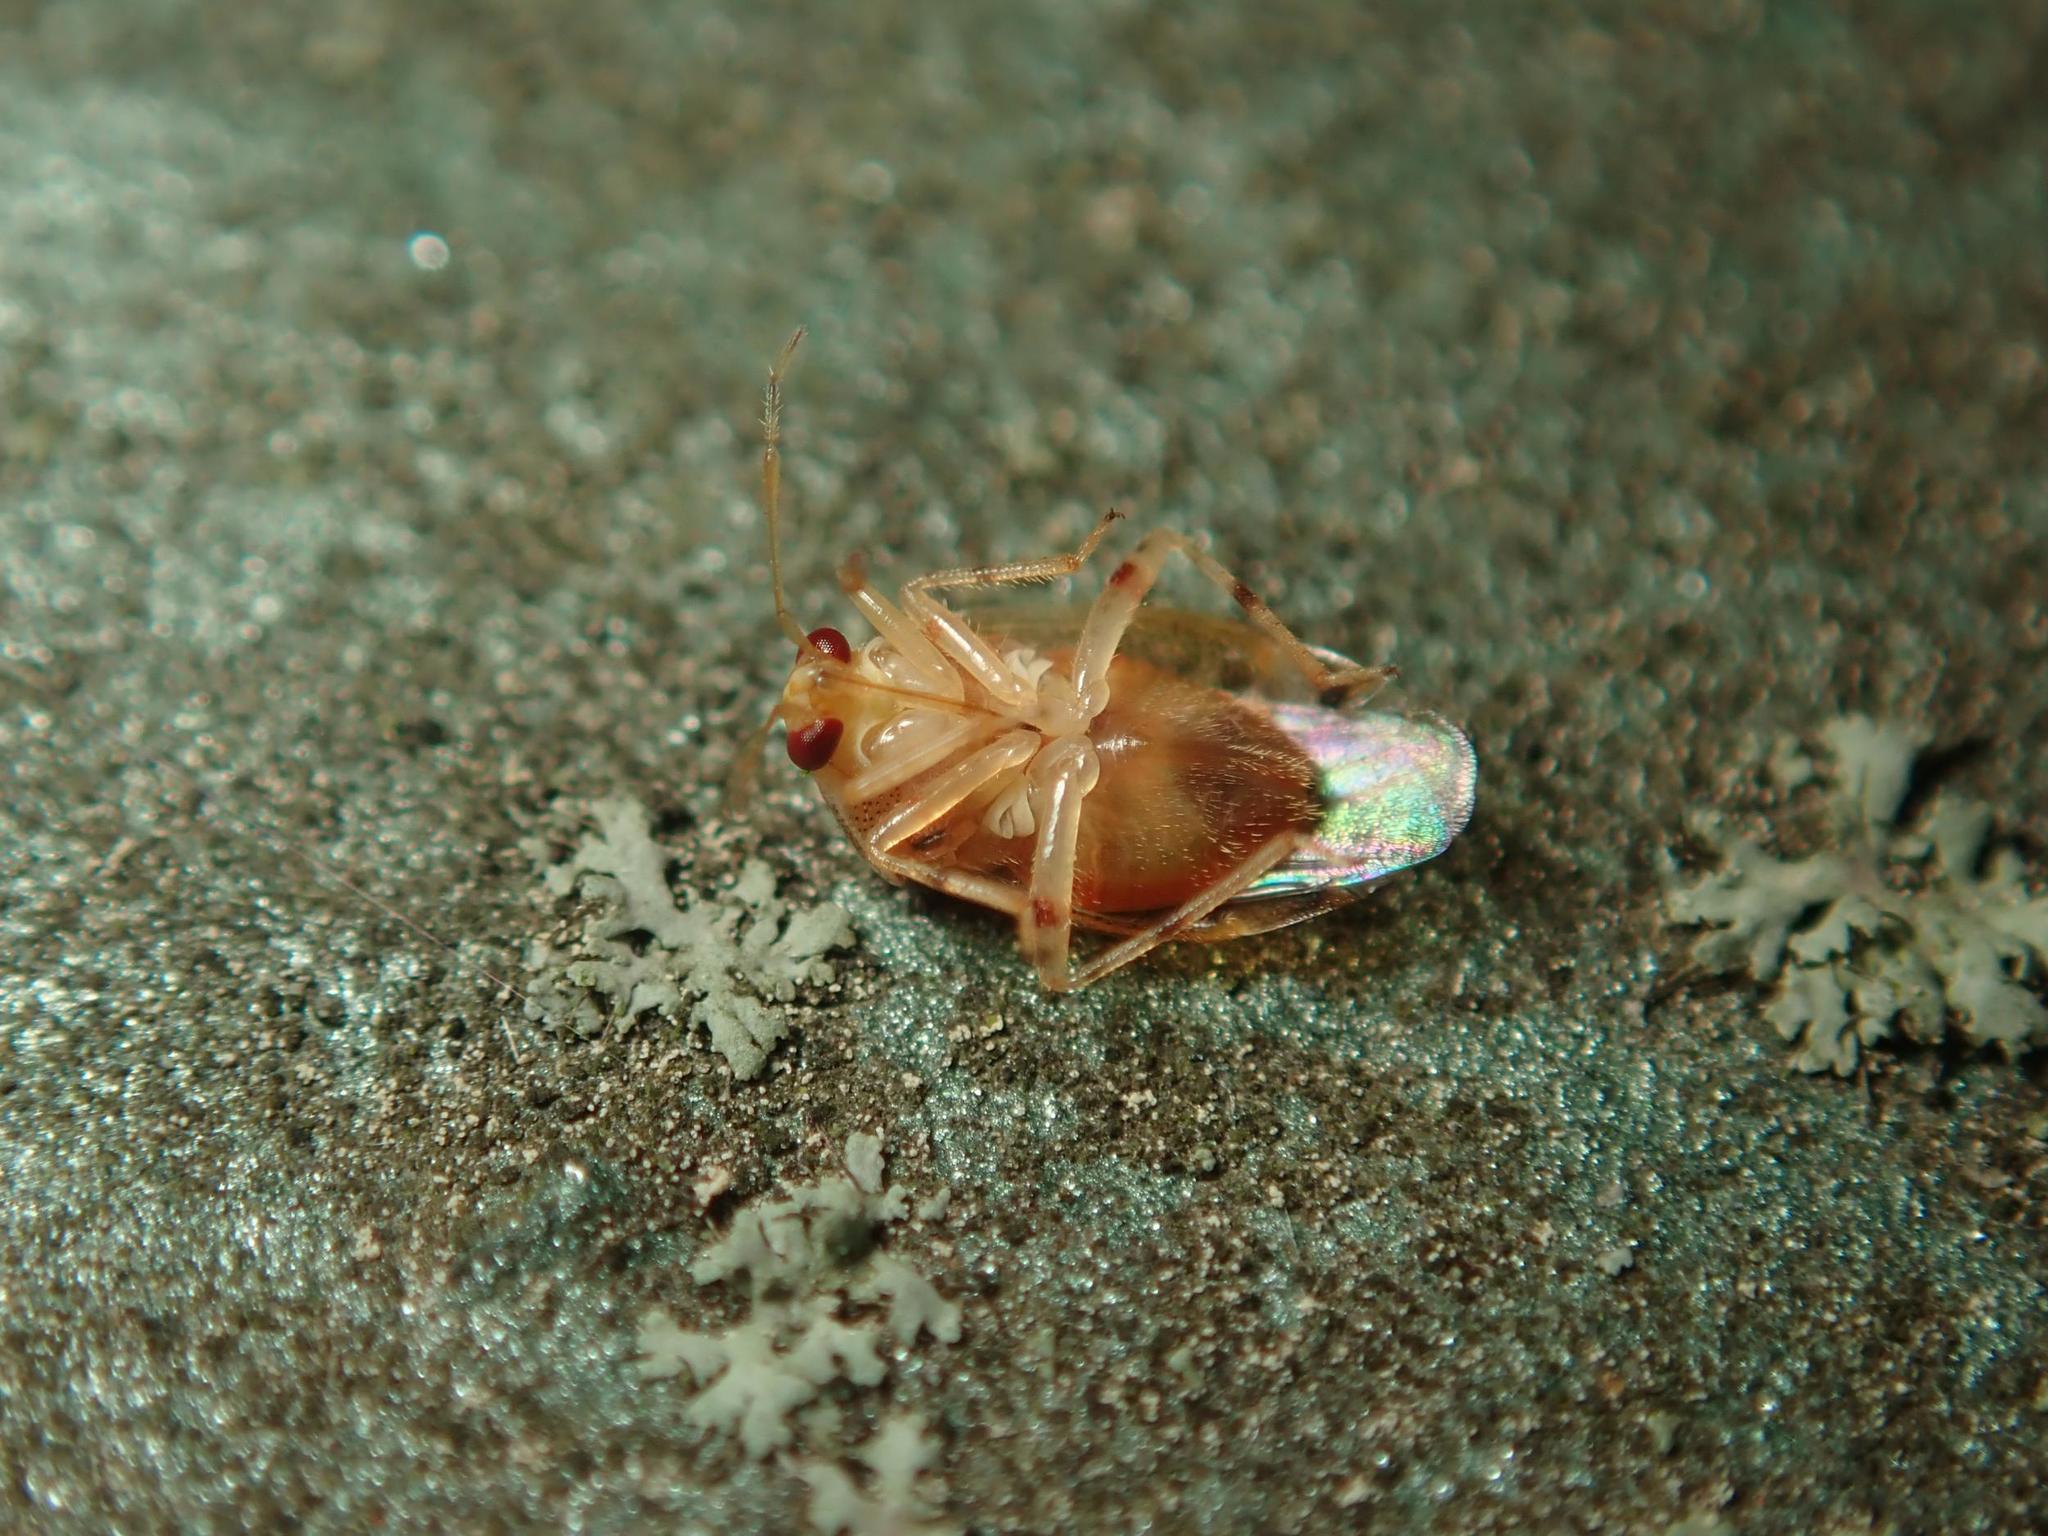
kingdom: Animalia
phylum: Arthropoda
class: Insecta
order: Hemiptera
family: Miridae
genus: Deraeocoris
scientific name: Deraeocoris lutescens
